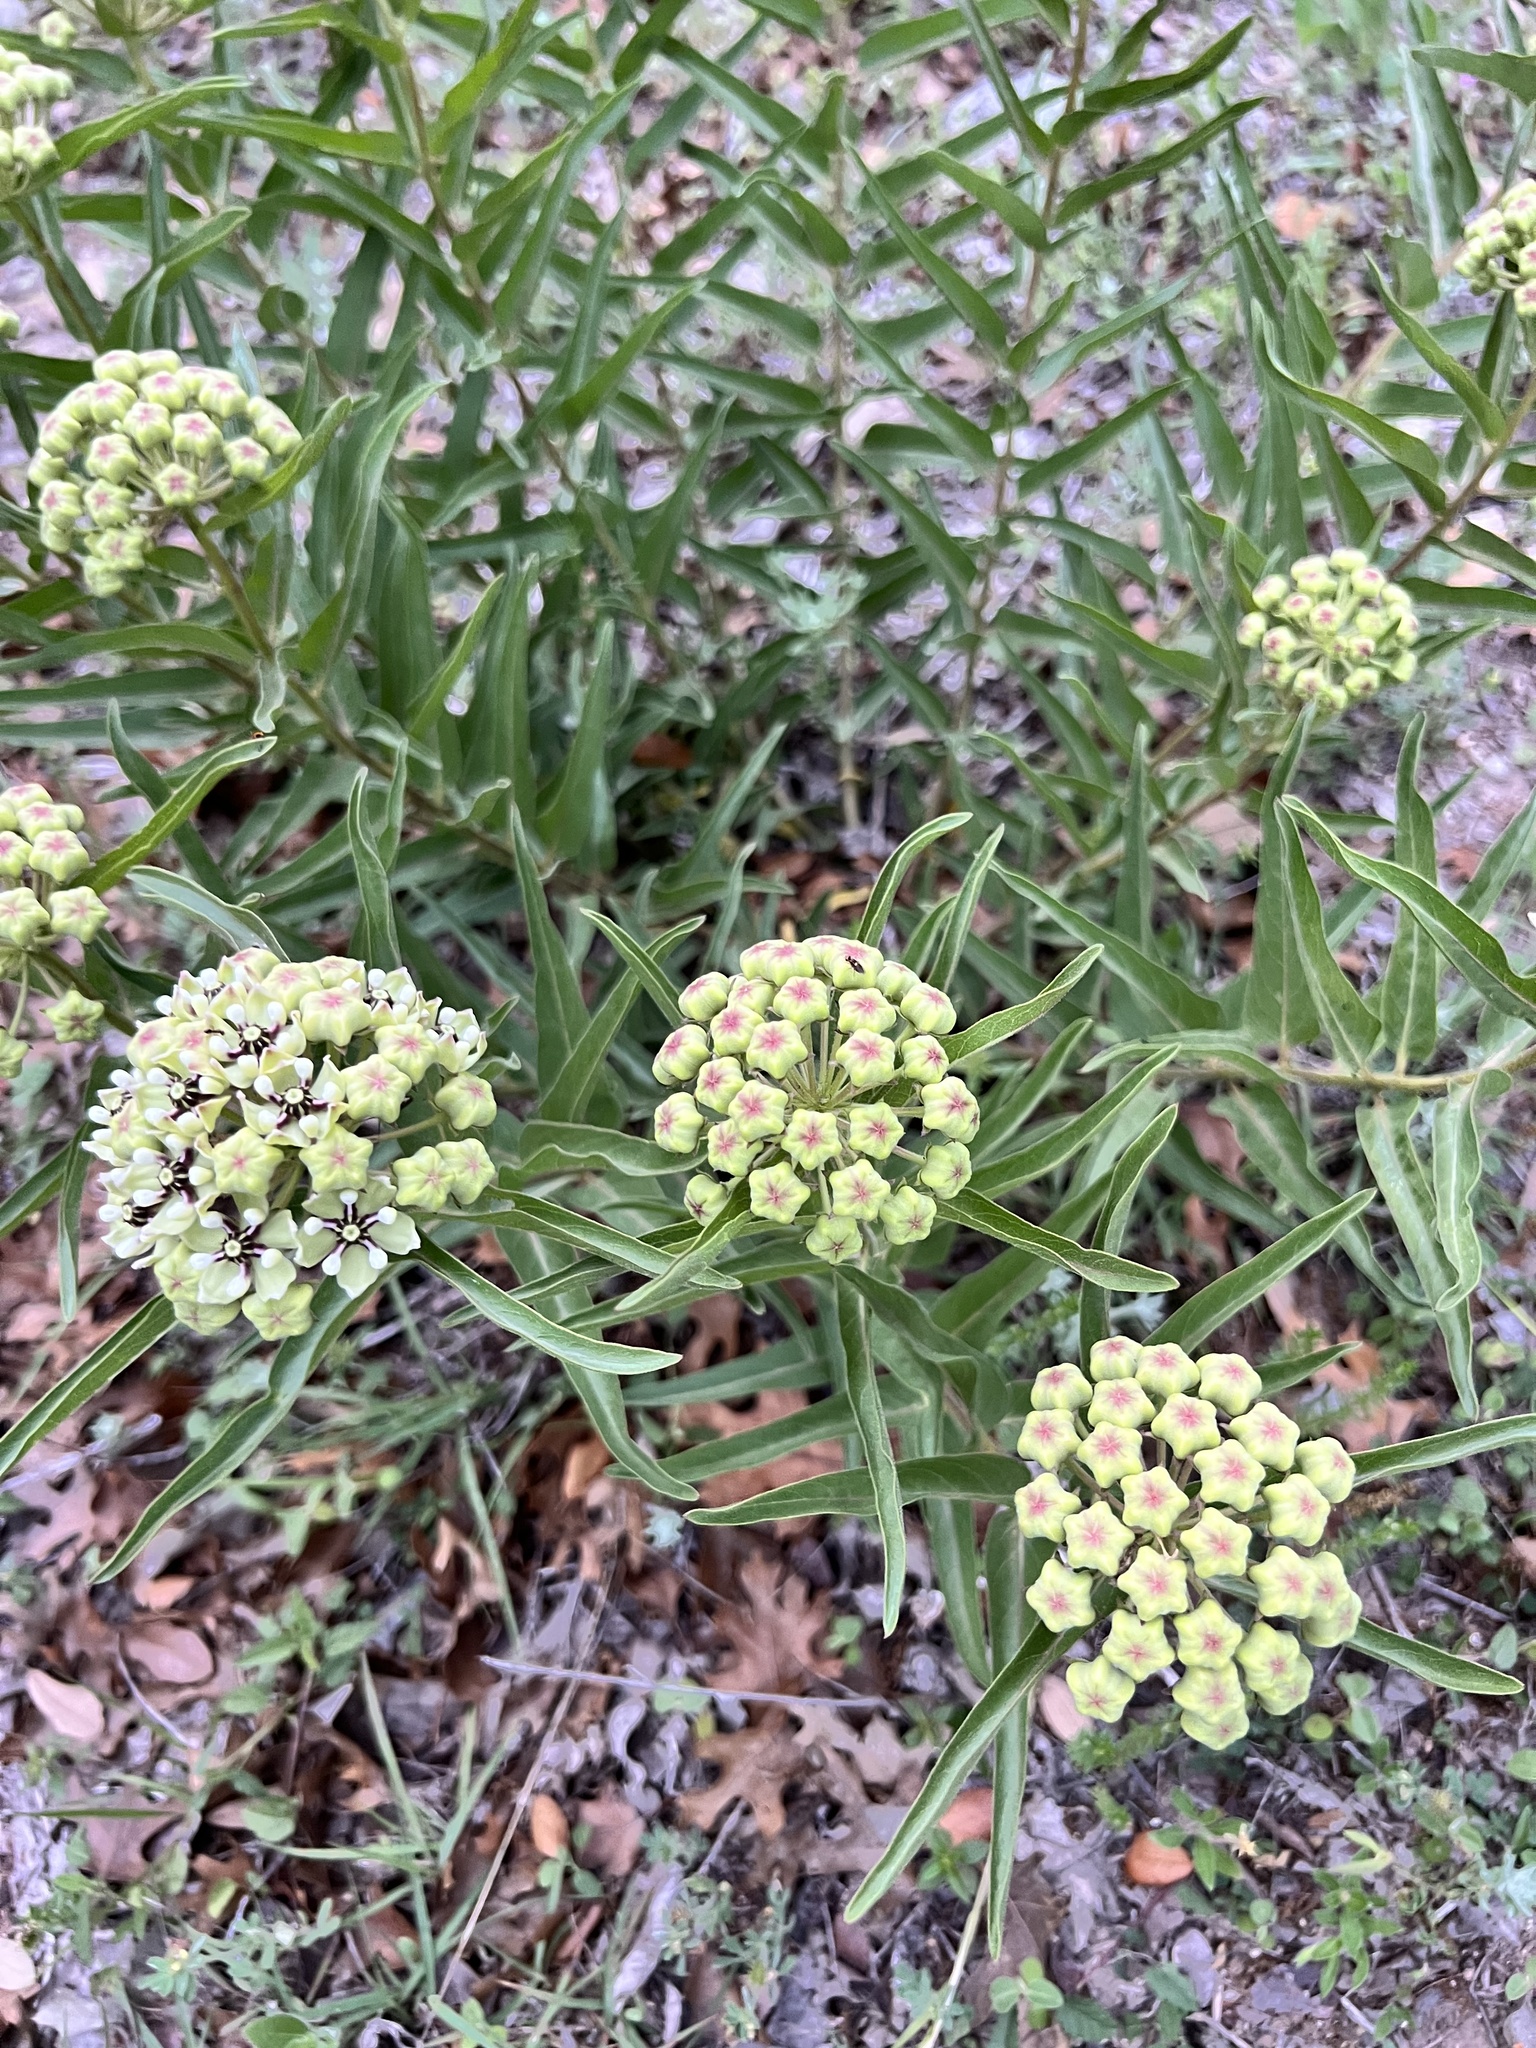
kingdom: Plantae
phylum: Tracheophyta
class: Magnoliopsida
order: Gentianales
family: Apocynaceae
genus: Asclepias
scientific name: Asclepias asperula
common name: Antelope horns
